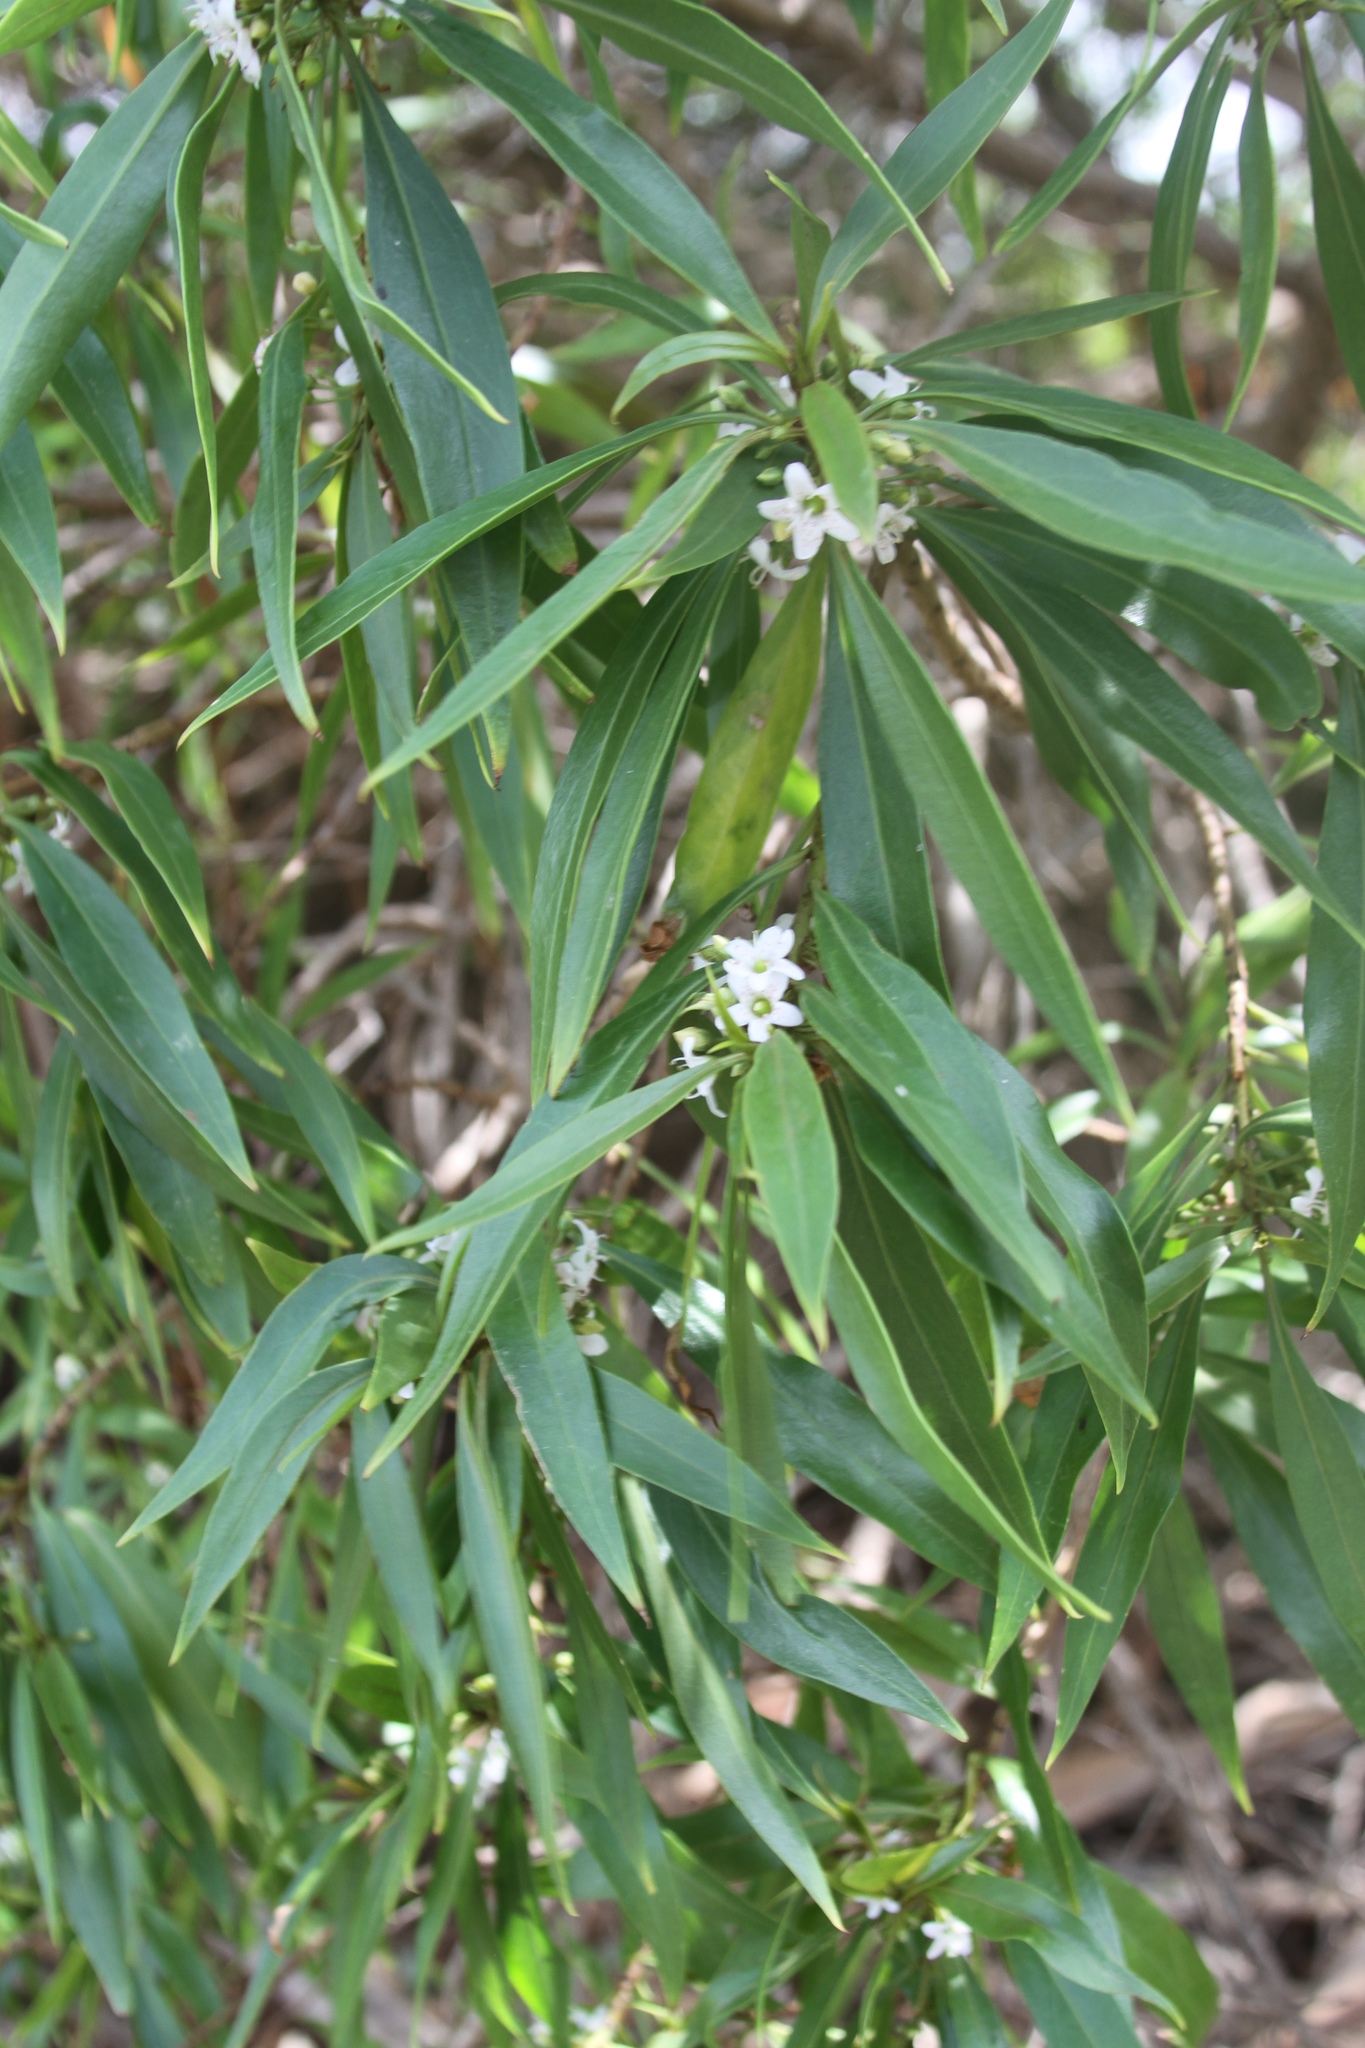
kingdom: Plantae
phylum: Tracheophyta
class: Magnoliopsida
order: Lamiales
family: Scrophulariaceae
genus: Myoporum
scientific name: Myoporum sandwicense
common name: Bastard-sandalwood
